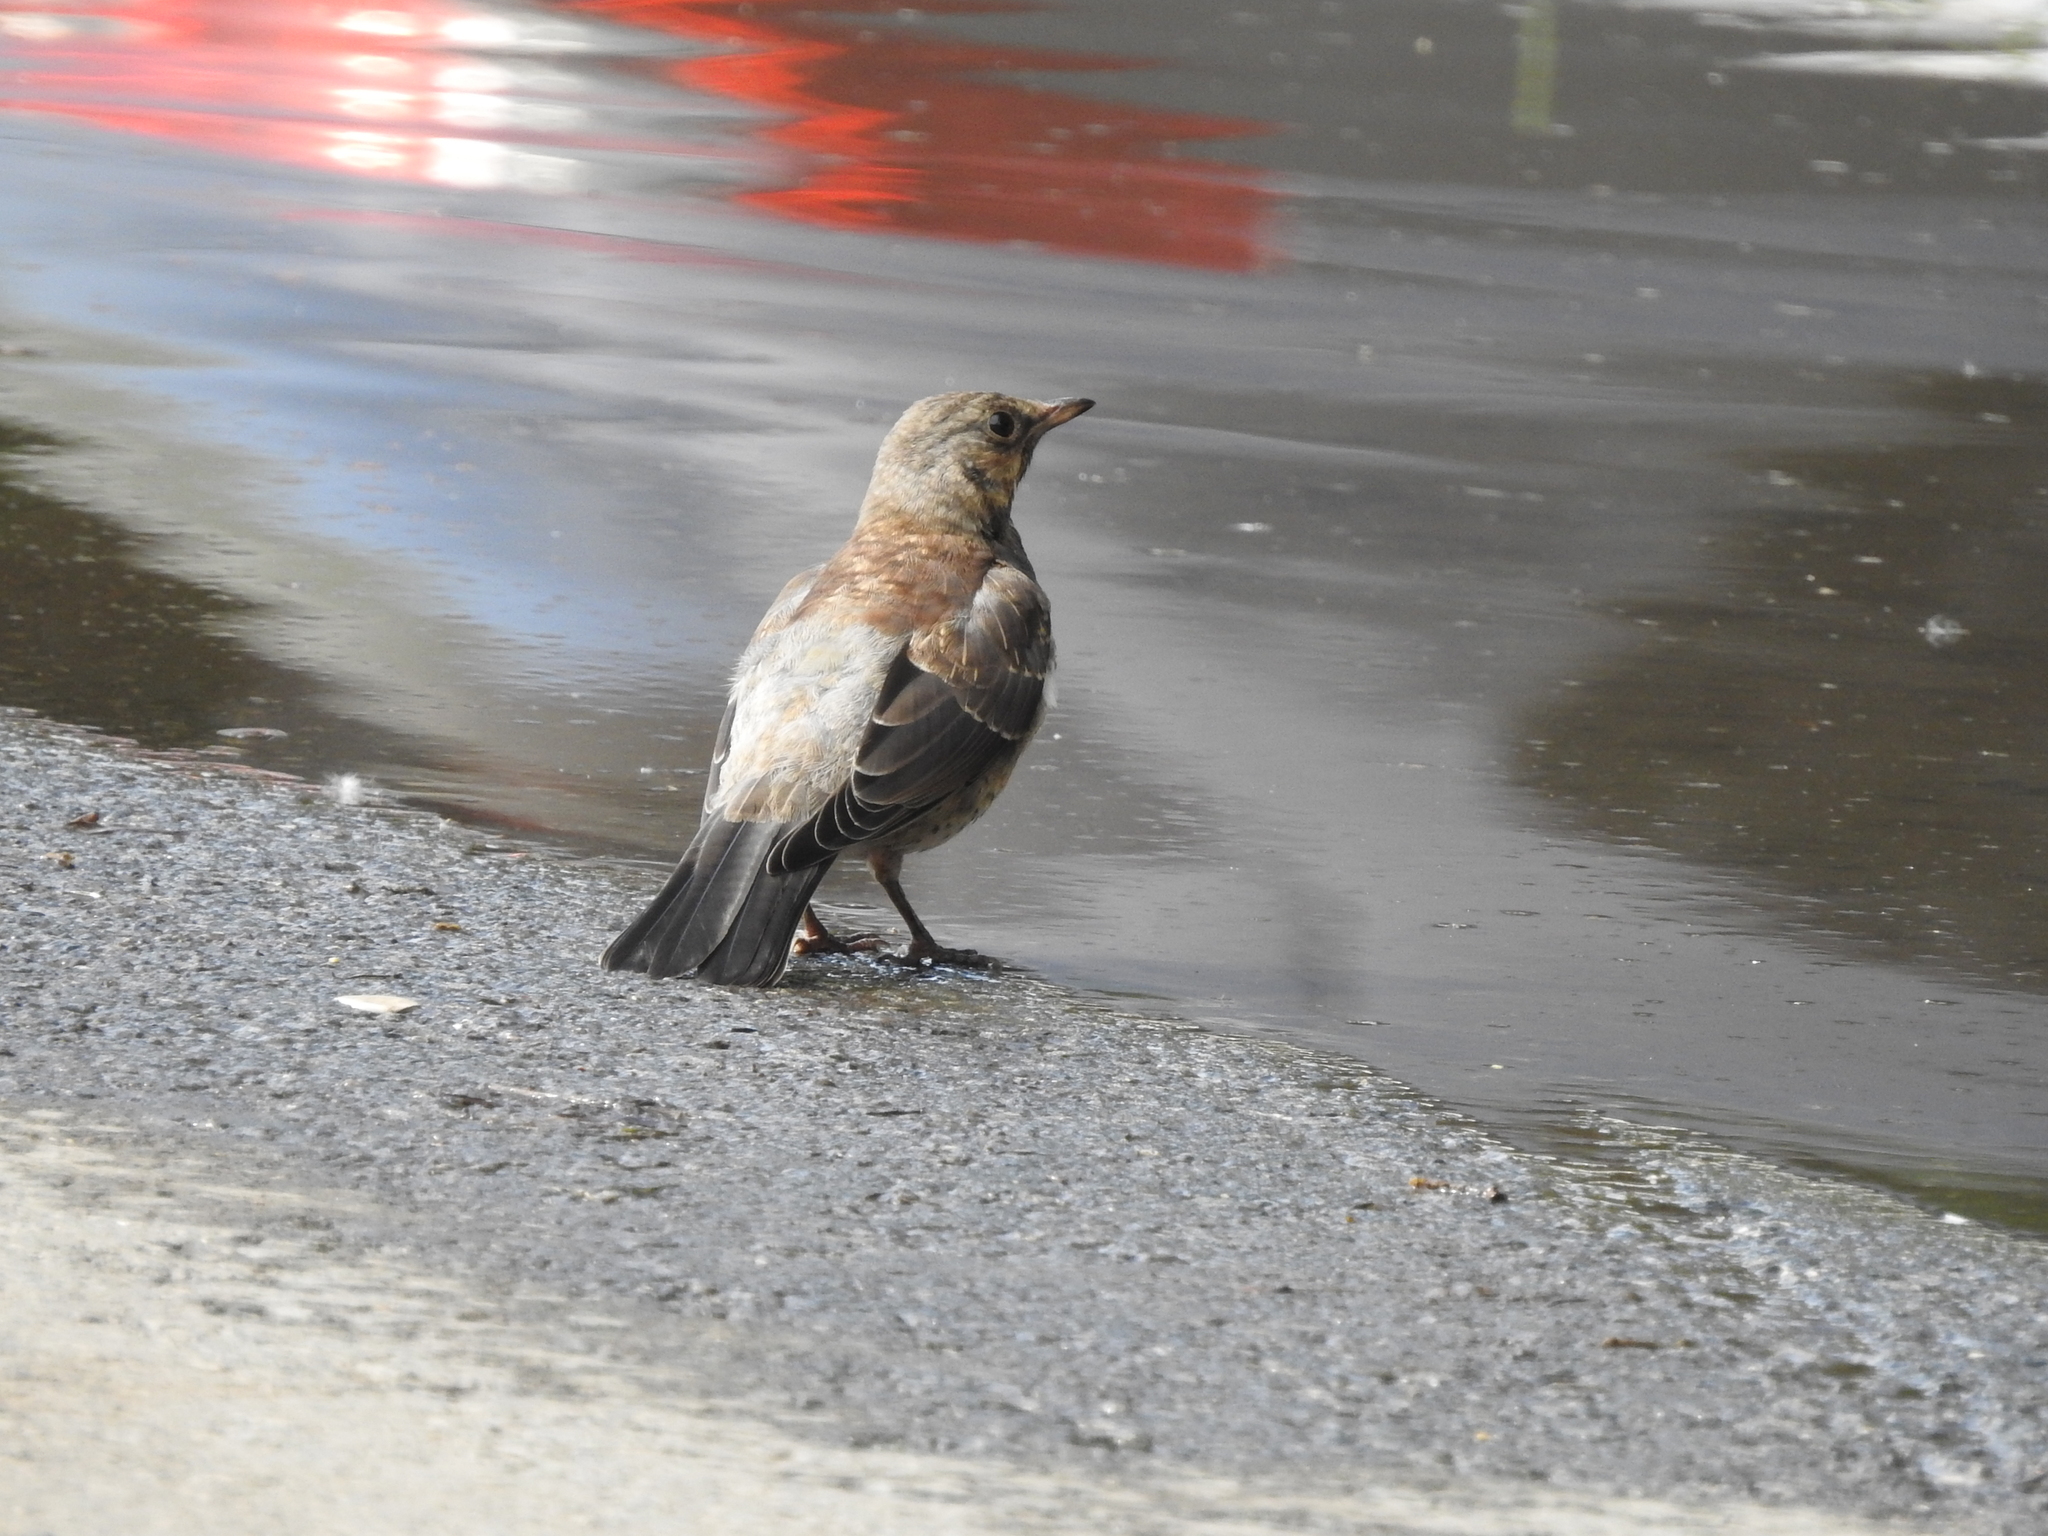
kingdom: Animalia
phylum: Chordata
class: Aves
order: Passeriformes
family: Turdidae
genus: Turdus
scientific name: Turdus pilaris
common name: Fieldfare
